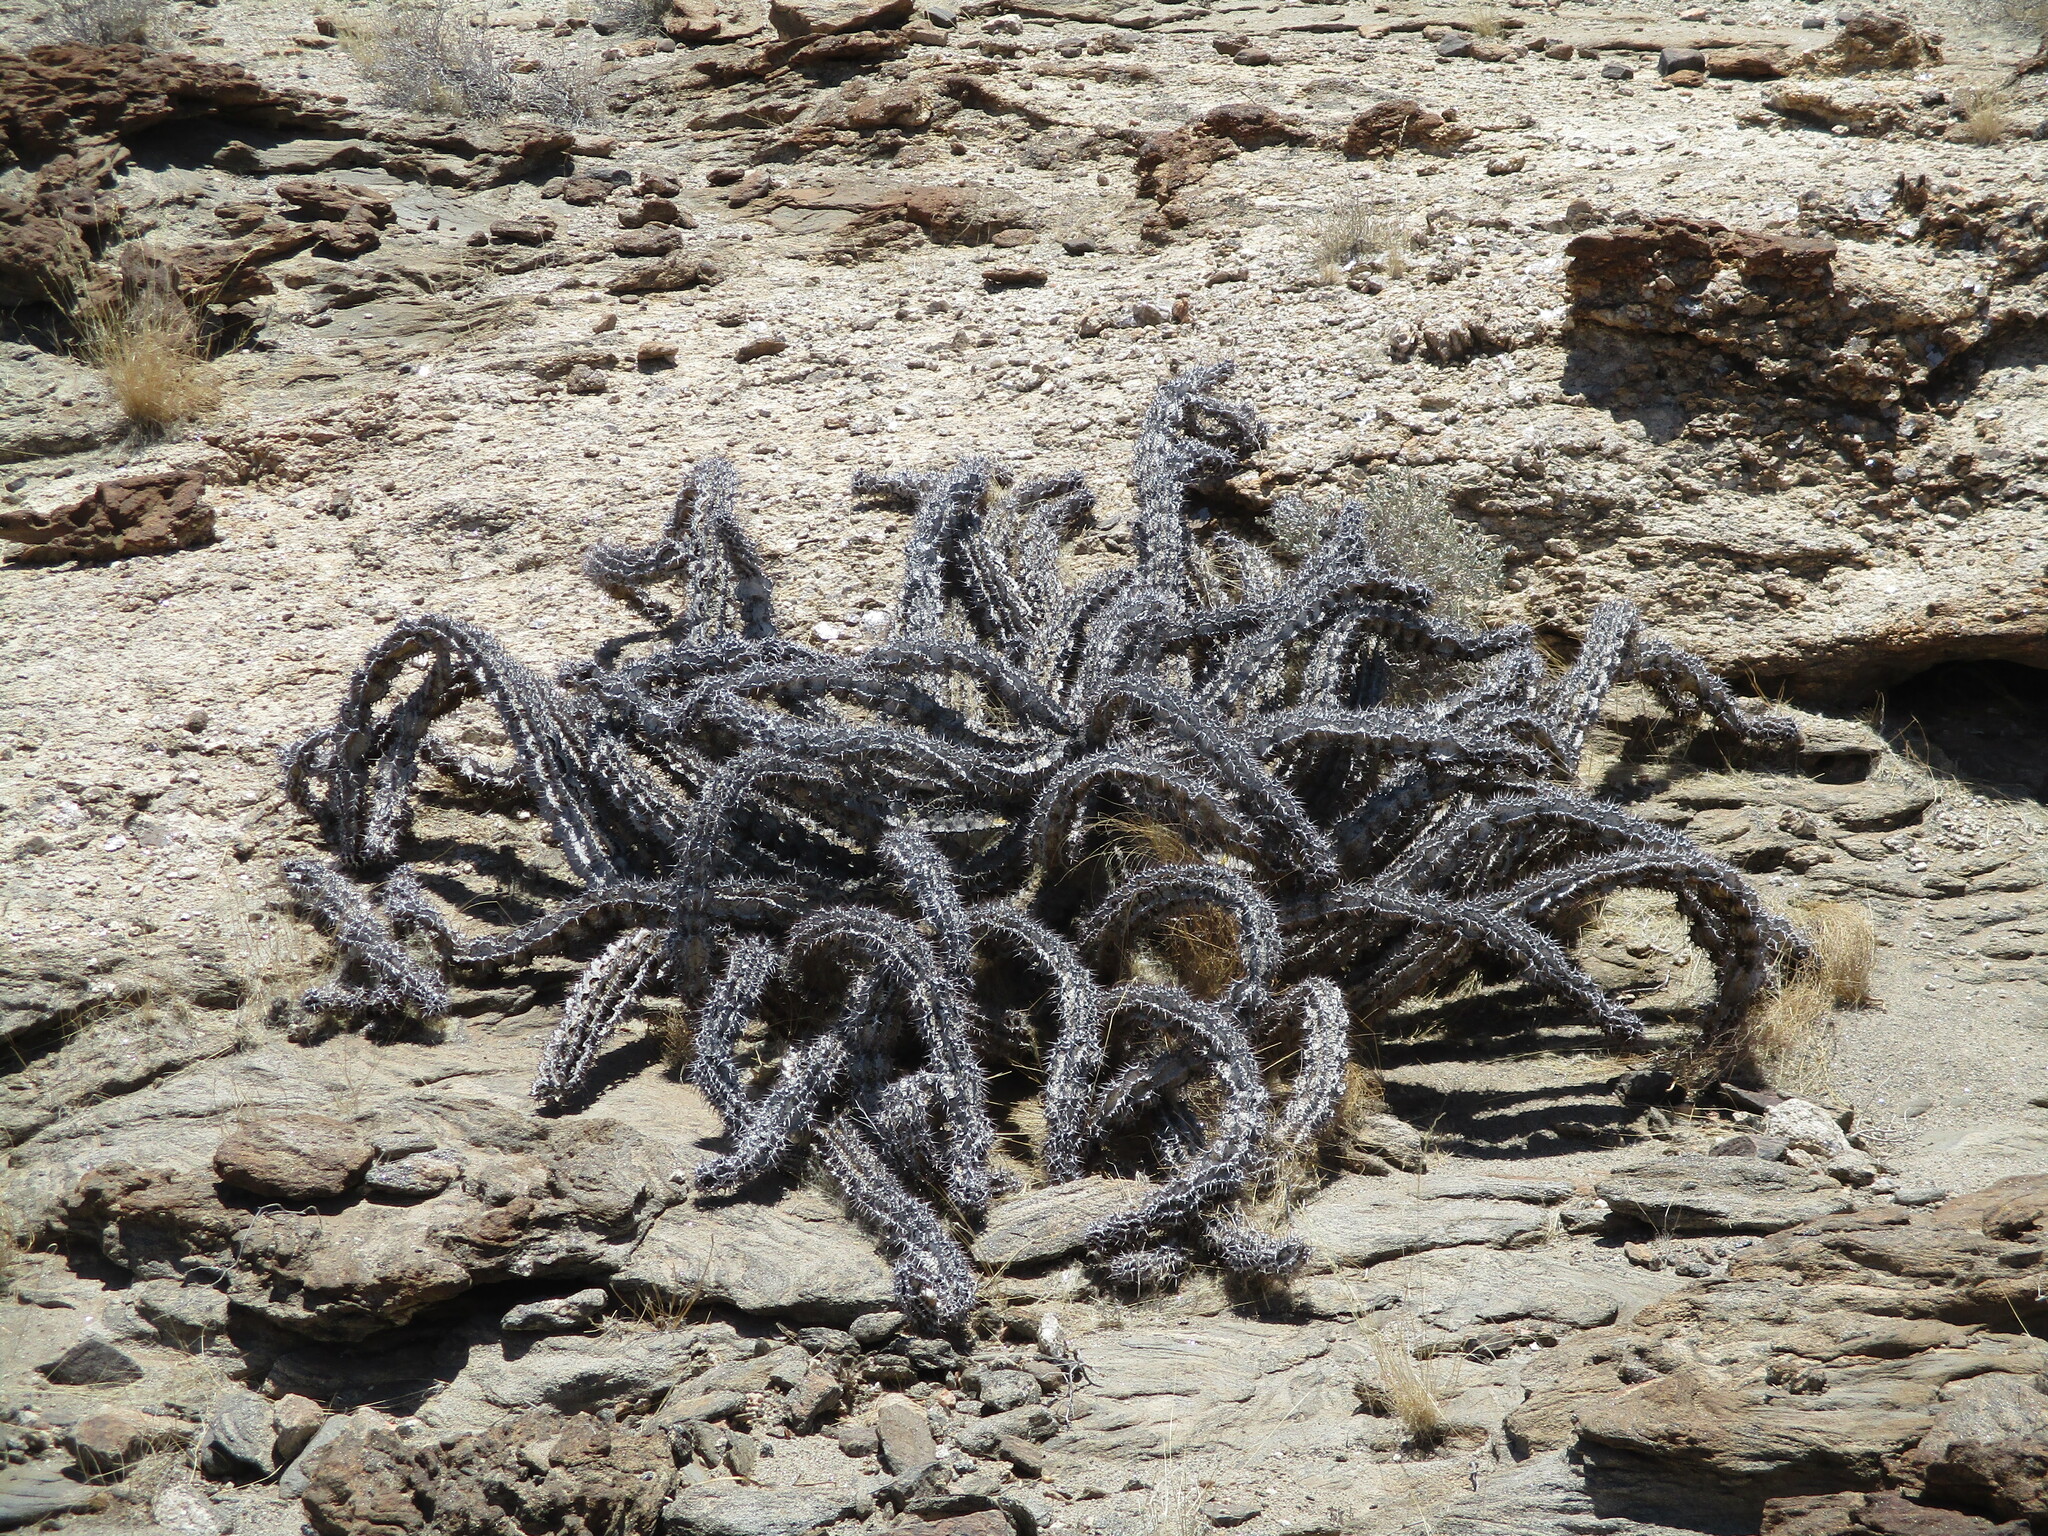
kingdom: Plantae
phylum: Tracheophyta
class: Magnoliopsida
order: Malpighiales
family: Euphorbiaceae
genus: Euphorbia
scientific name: Euphorbia virosa
